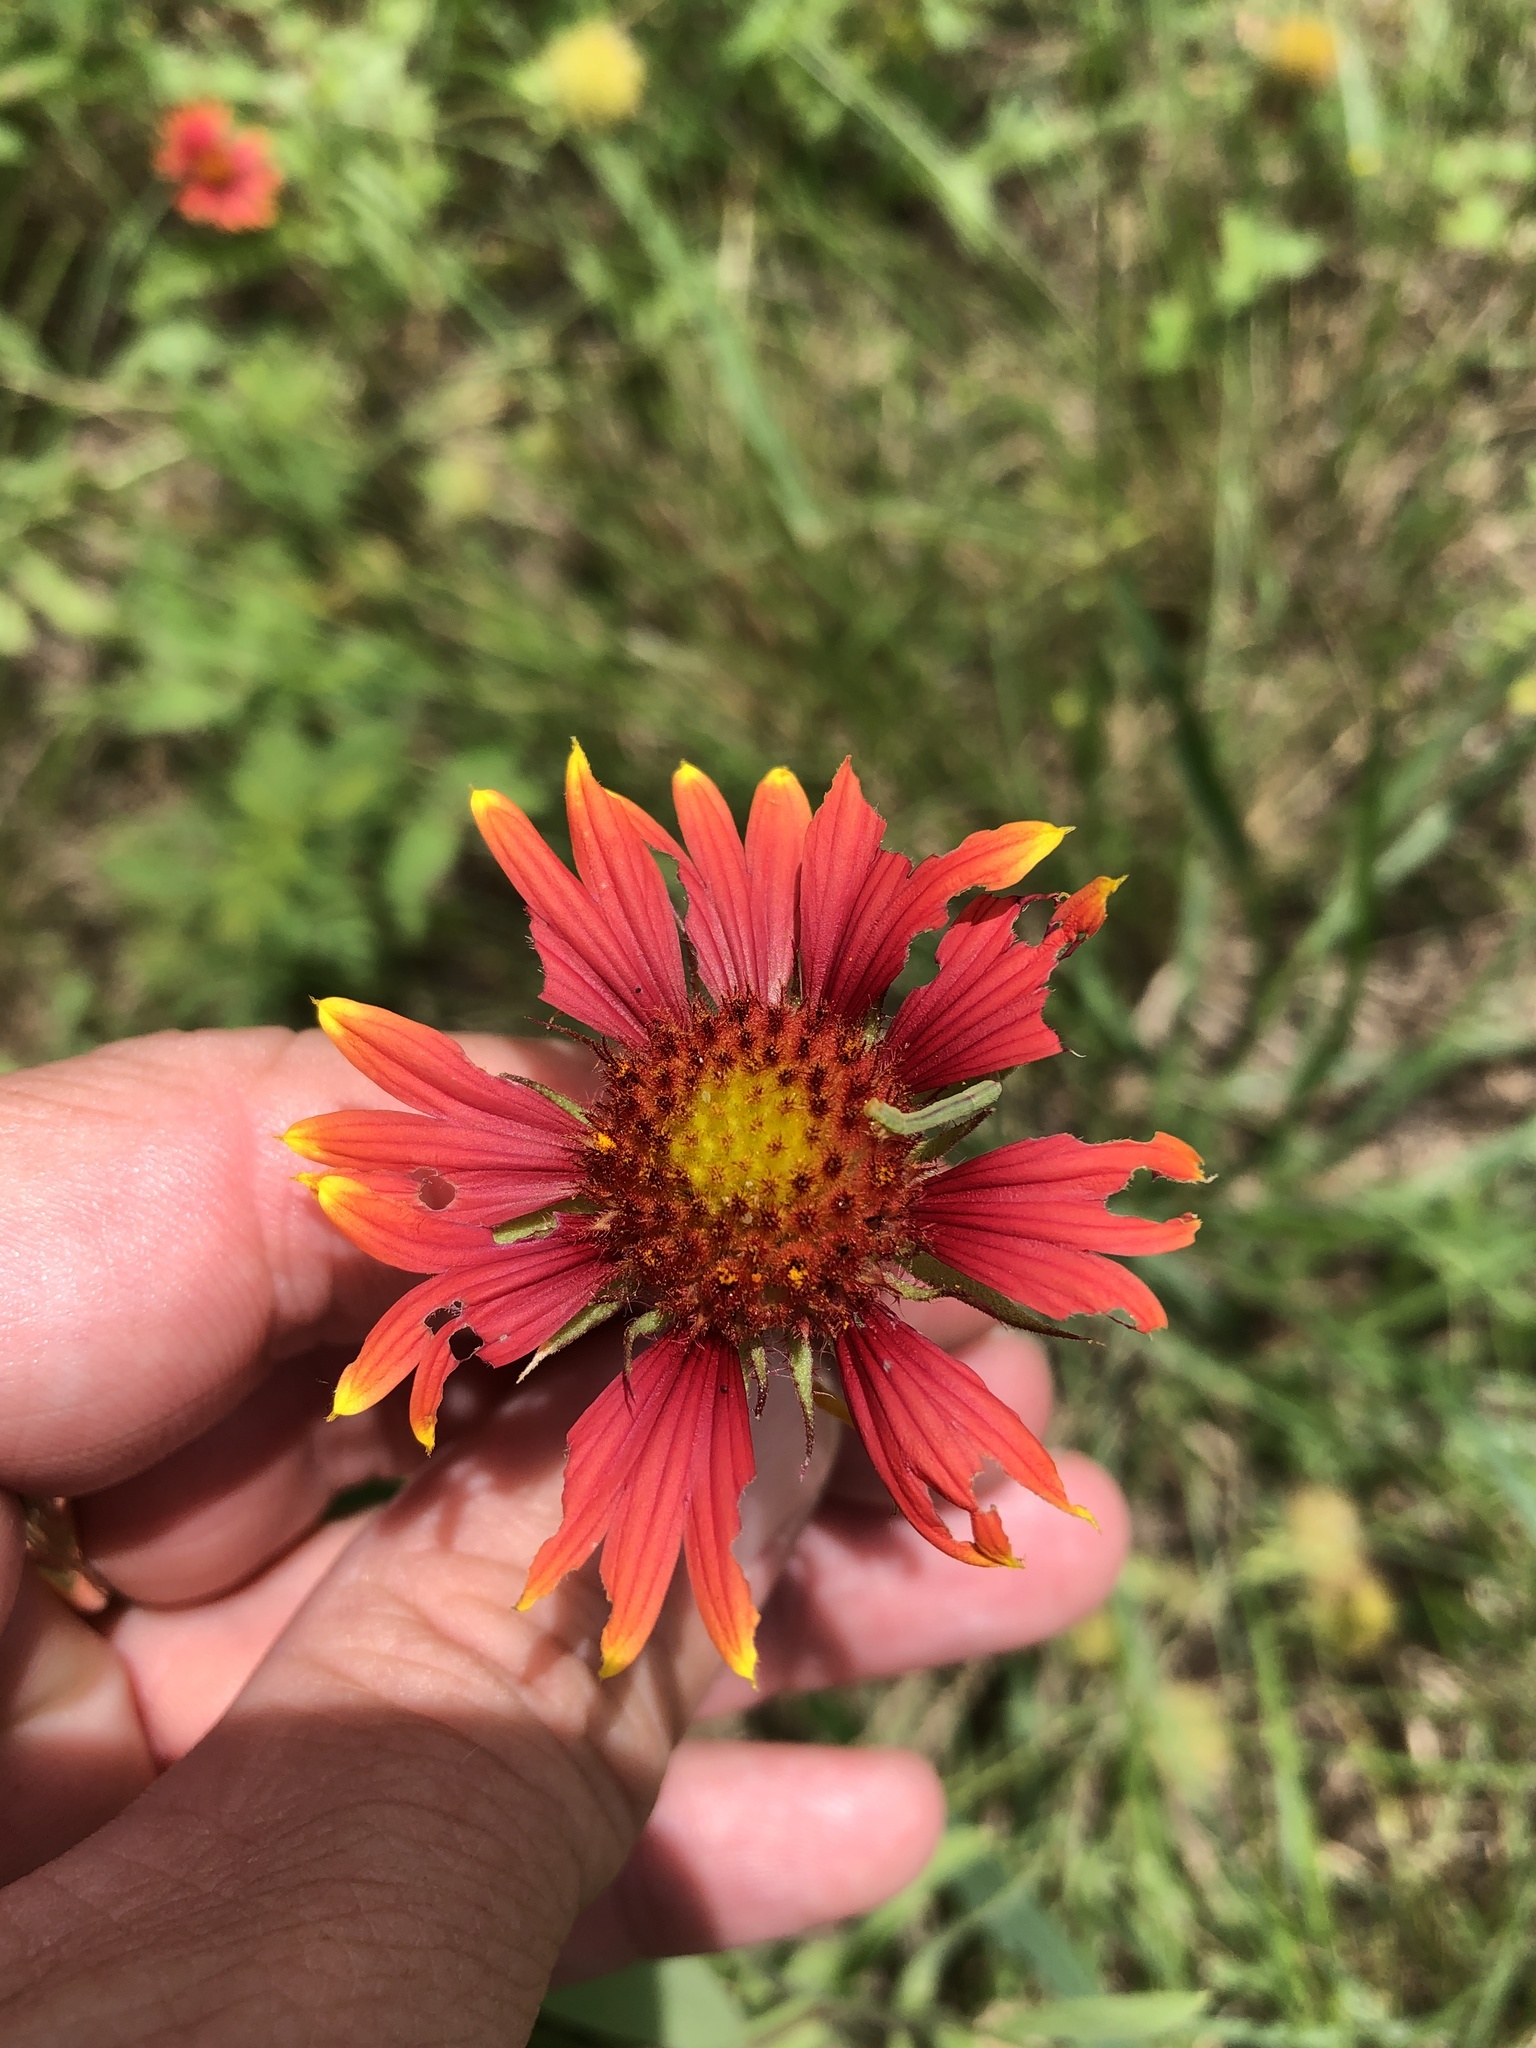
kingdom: Plantae
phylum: Tracheophyta
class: Magnoliopsida
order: Asterales
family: Asteraceae
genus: Gaillardia
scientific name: Gaillardia pulchella
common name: Firewheel
